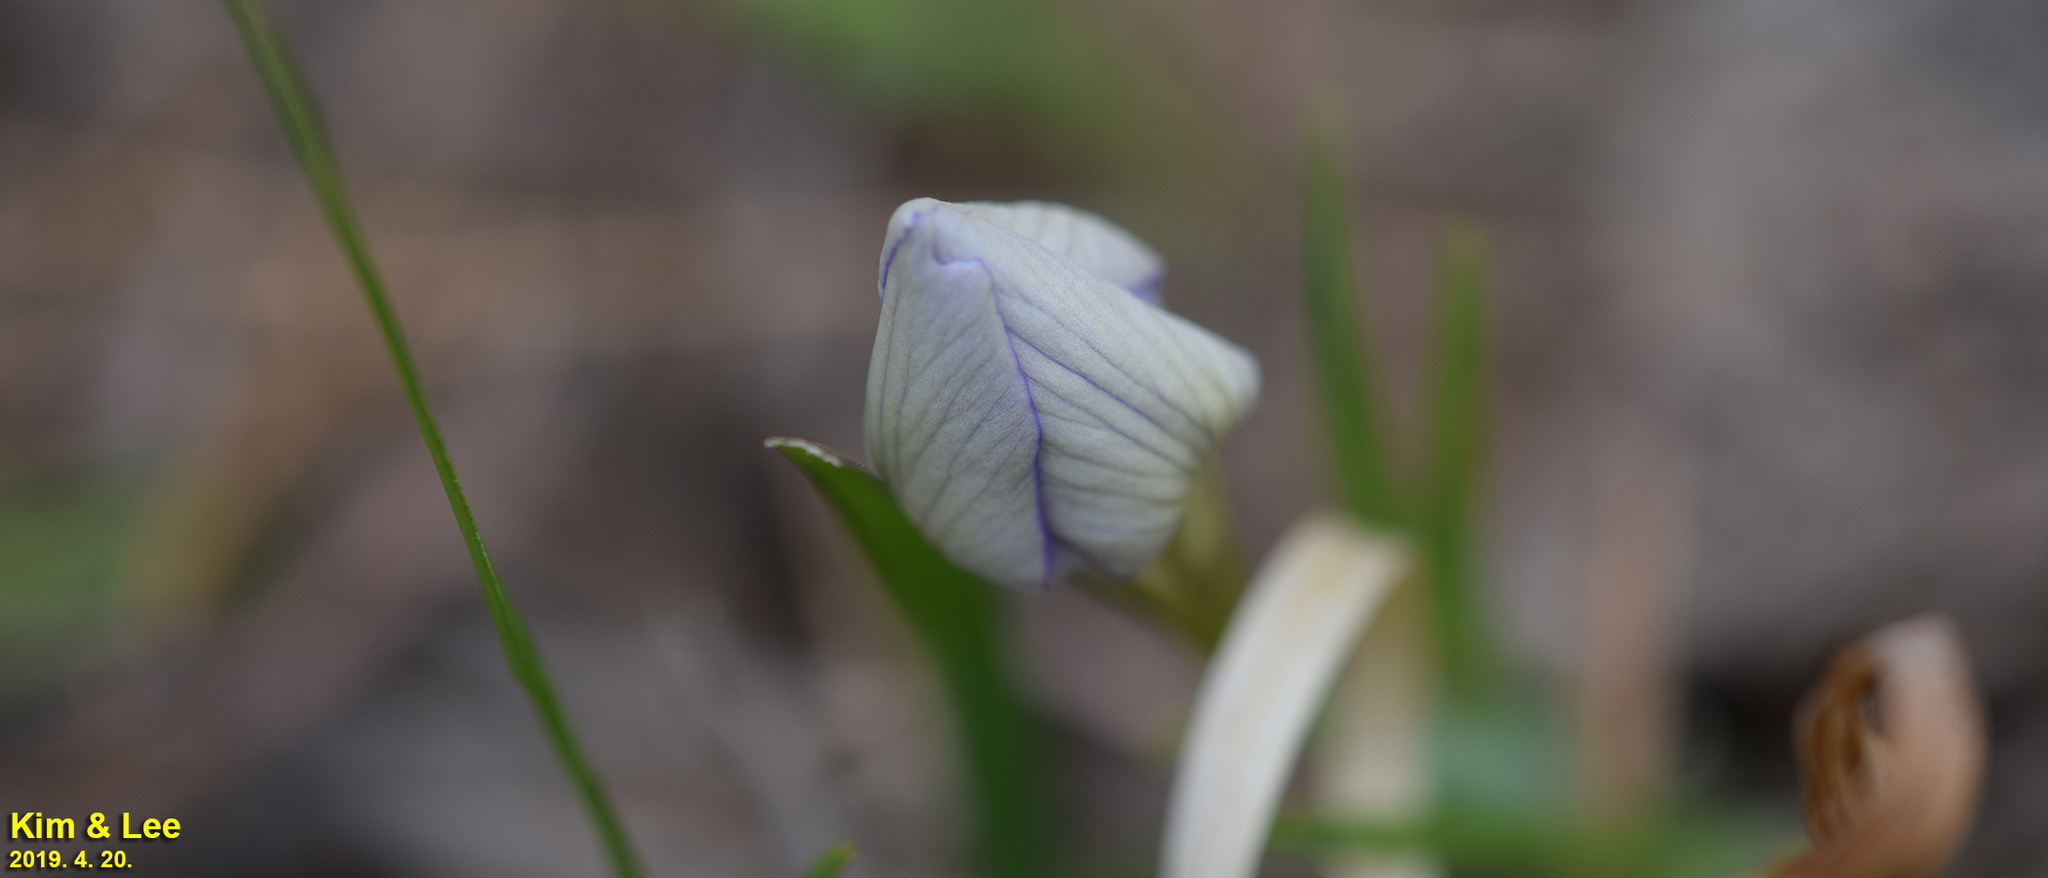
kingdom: Plantae
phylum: Tracheophyta
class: Liliopsida
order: Asparagales
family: Iridaceae
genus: Iris
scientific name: Iris rossii
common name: Long-tail iris
